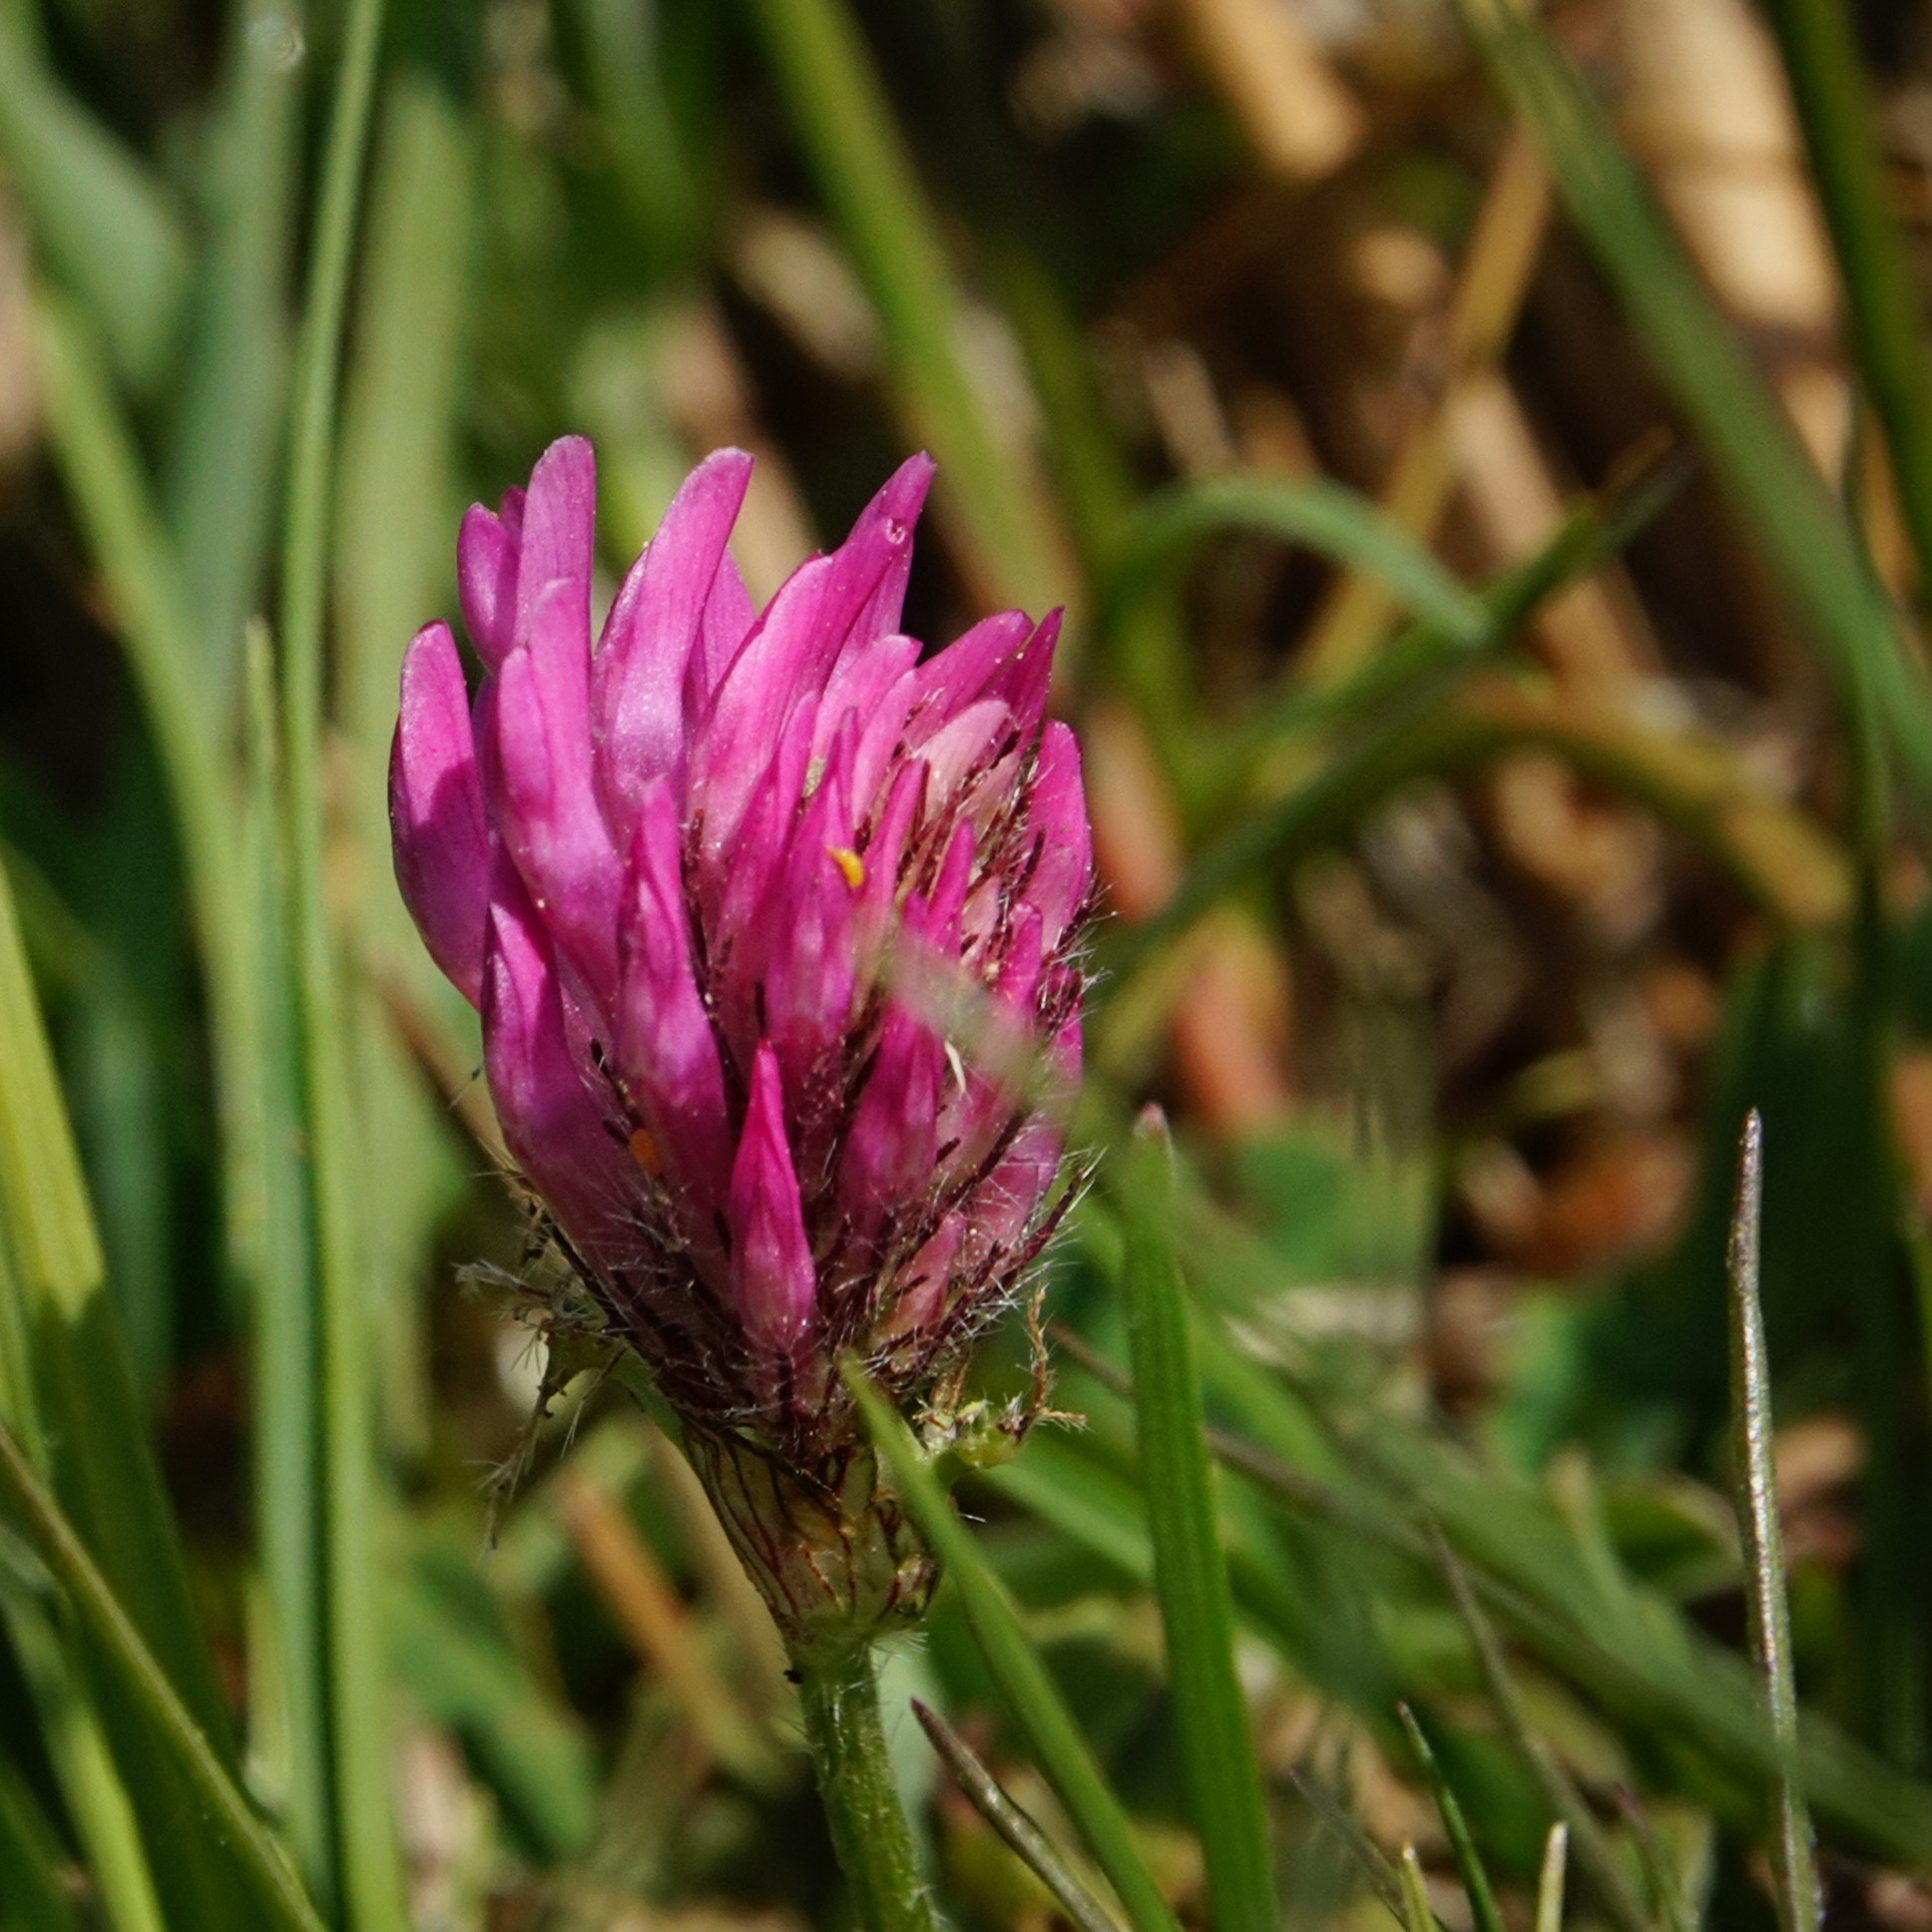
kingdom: Plantae
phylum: Tracheophyta
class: Magnoliopsida
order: Fabales
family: Fabaceae
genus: Trifolium
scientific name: Trifolium pratense
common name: Red clover
